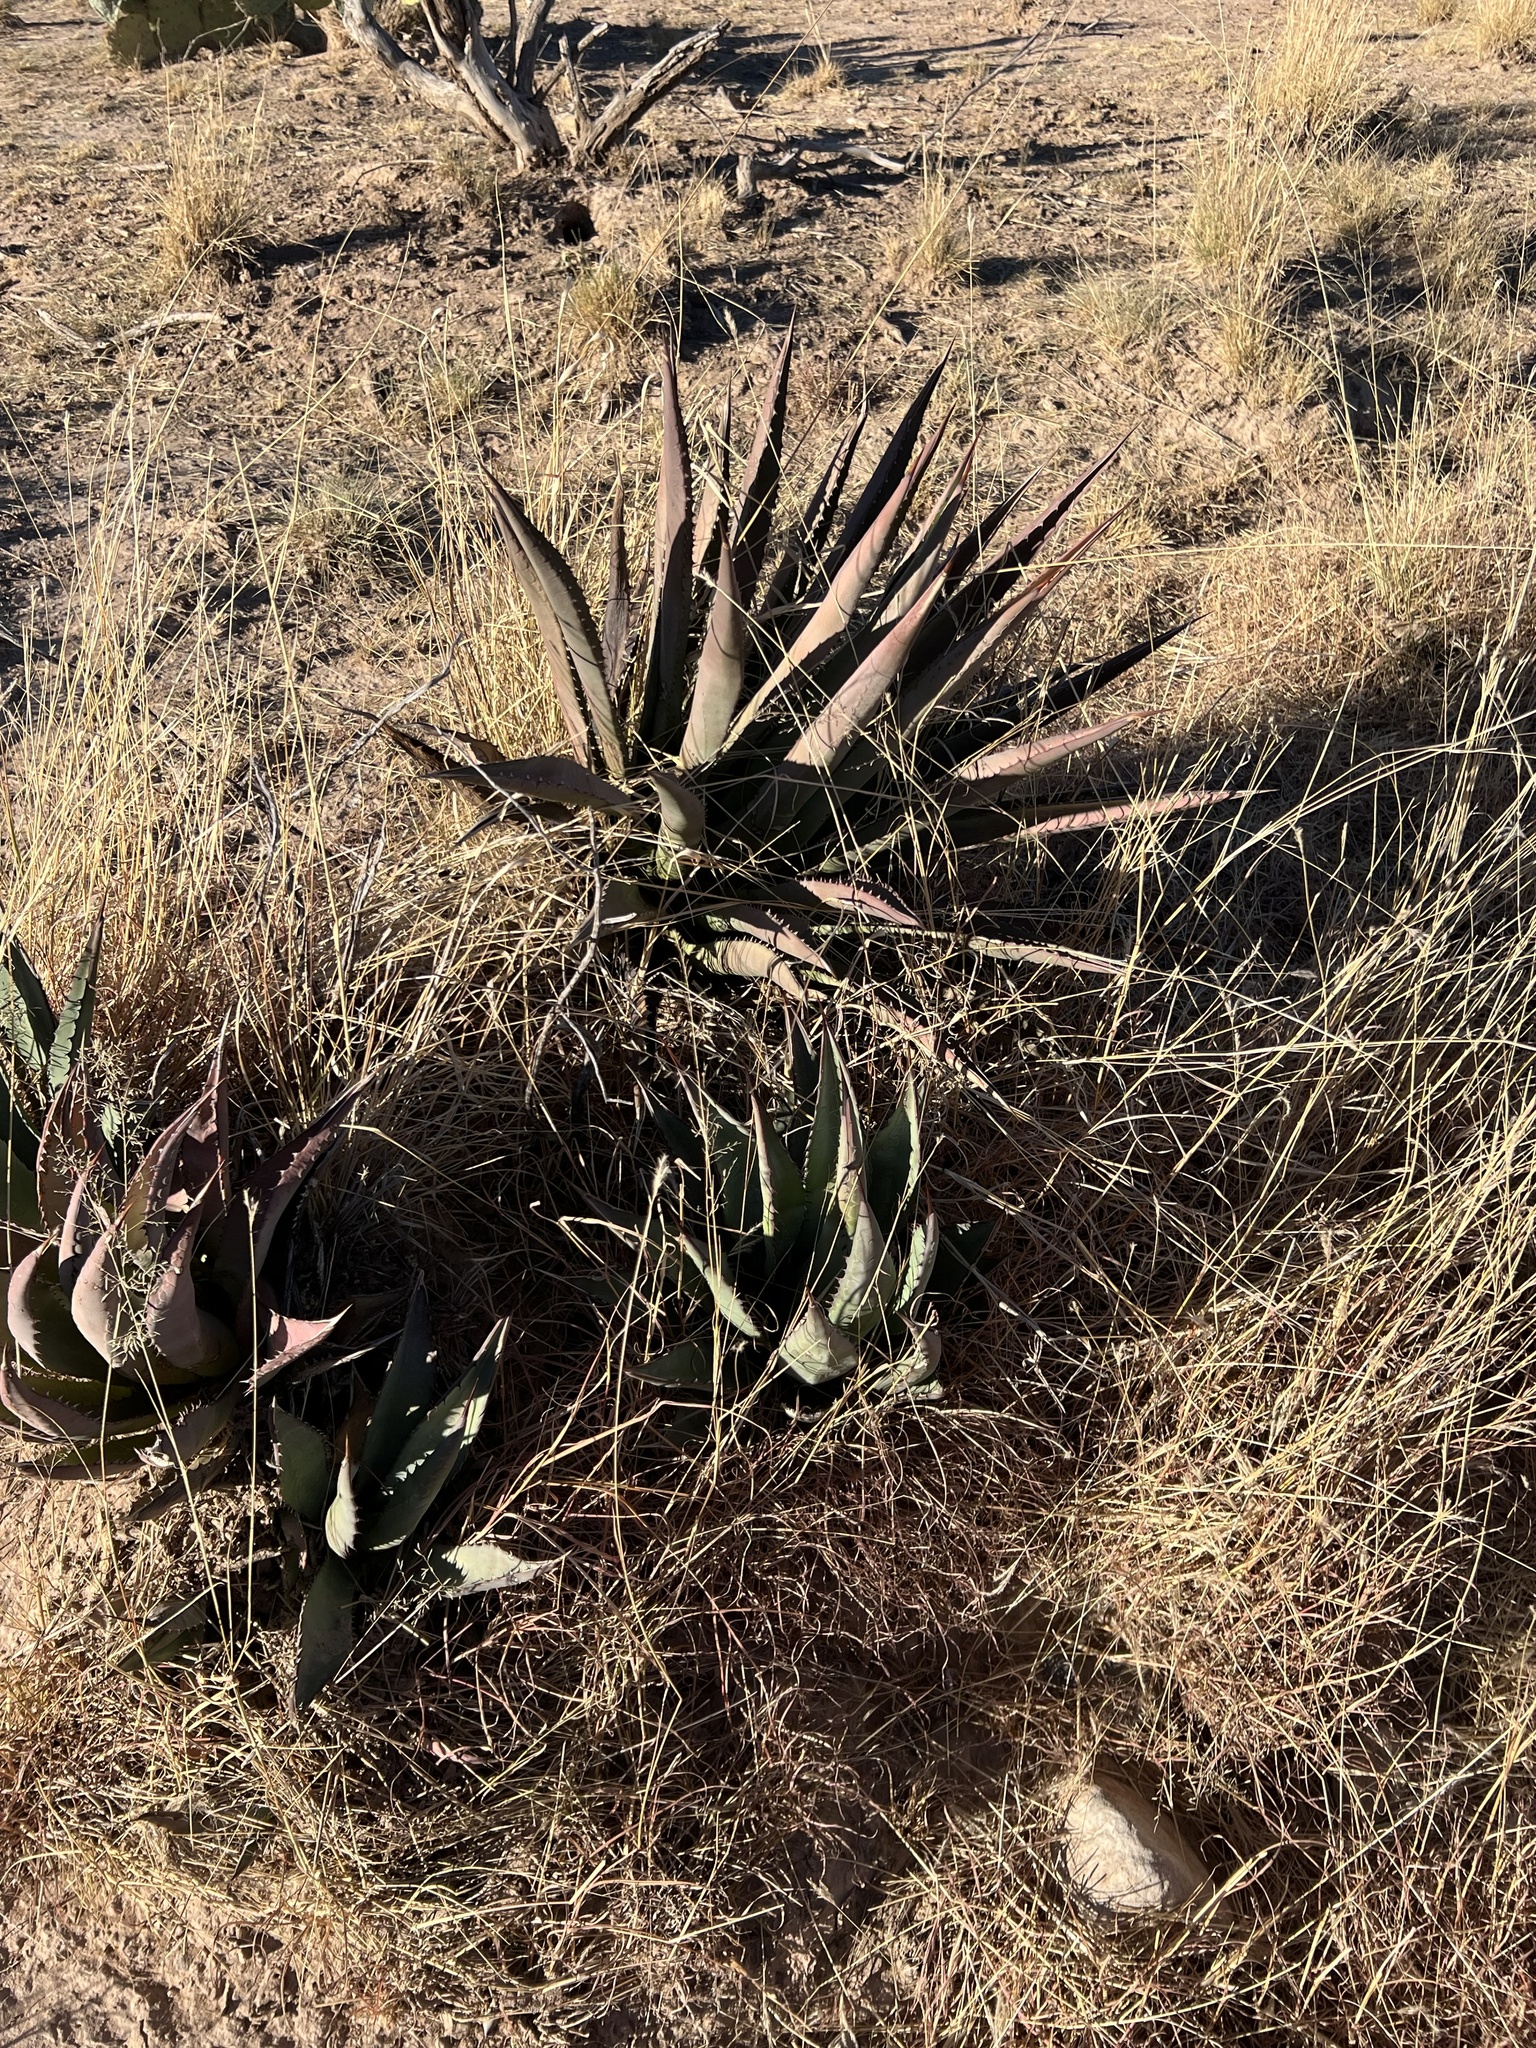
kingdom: Plantae
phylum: Tracheophyta
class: Liliopsida
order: Asparagales
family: Asparagaceae
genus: Agave
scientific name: Agave palmeri
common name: Palmer agave
